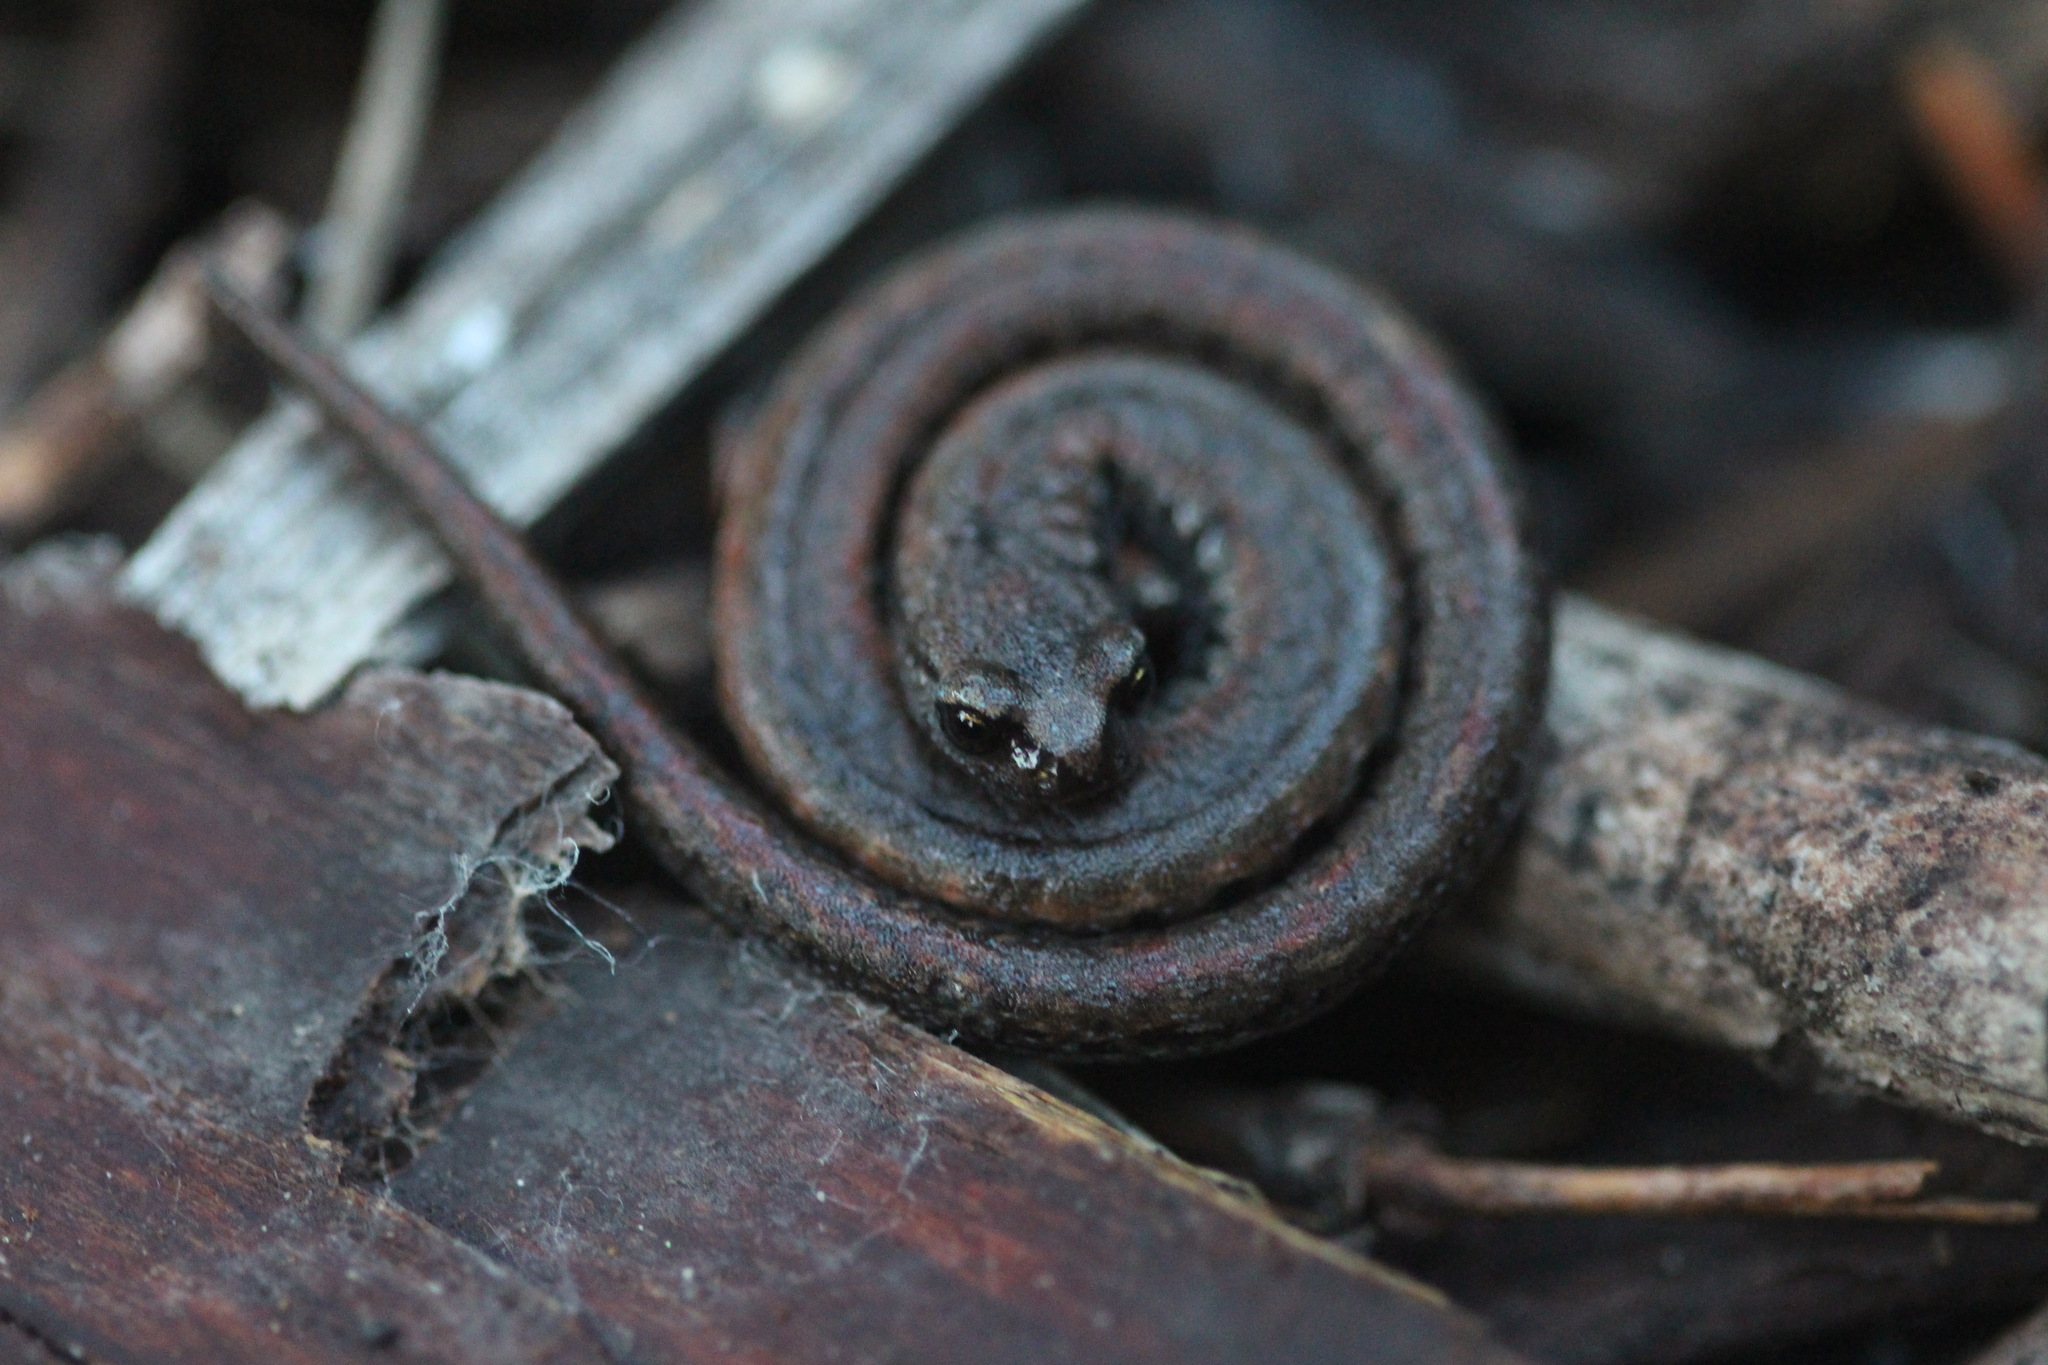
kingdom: Animalia
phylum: Chordata
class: Amphibia
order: Caudata
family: Plethodontidae
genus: Batrachoseps
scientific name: Batrachoseps attenuatus
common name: California slender salamander
